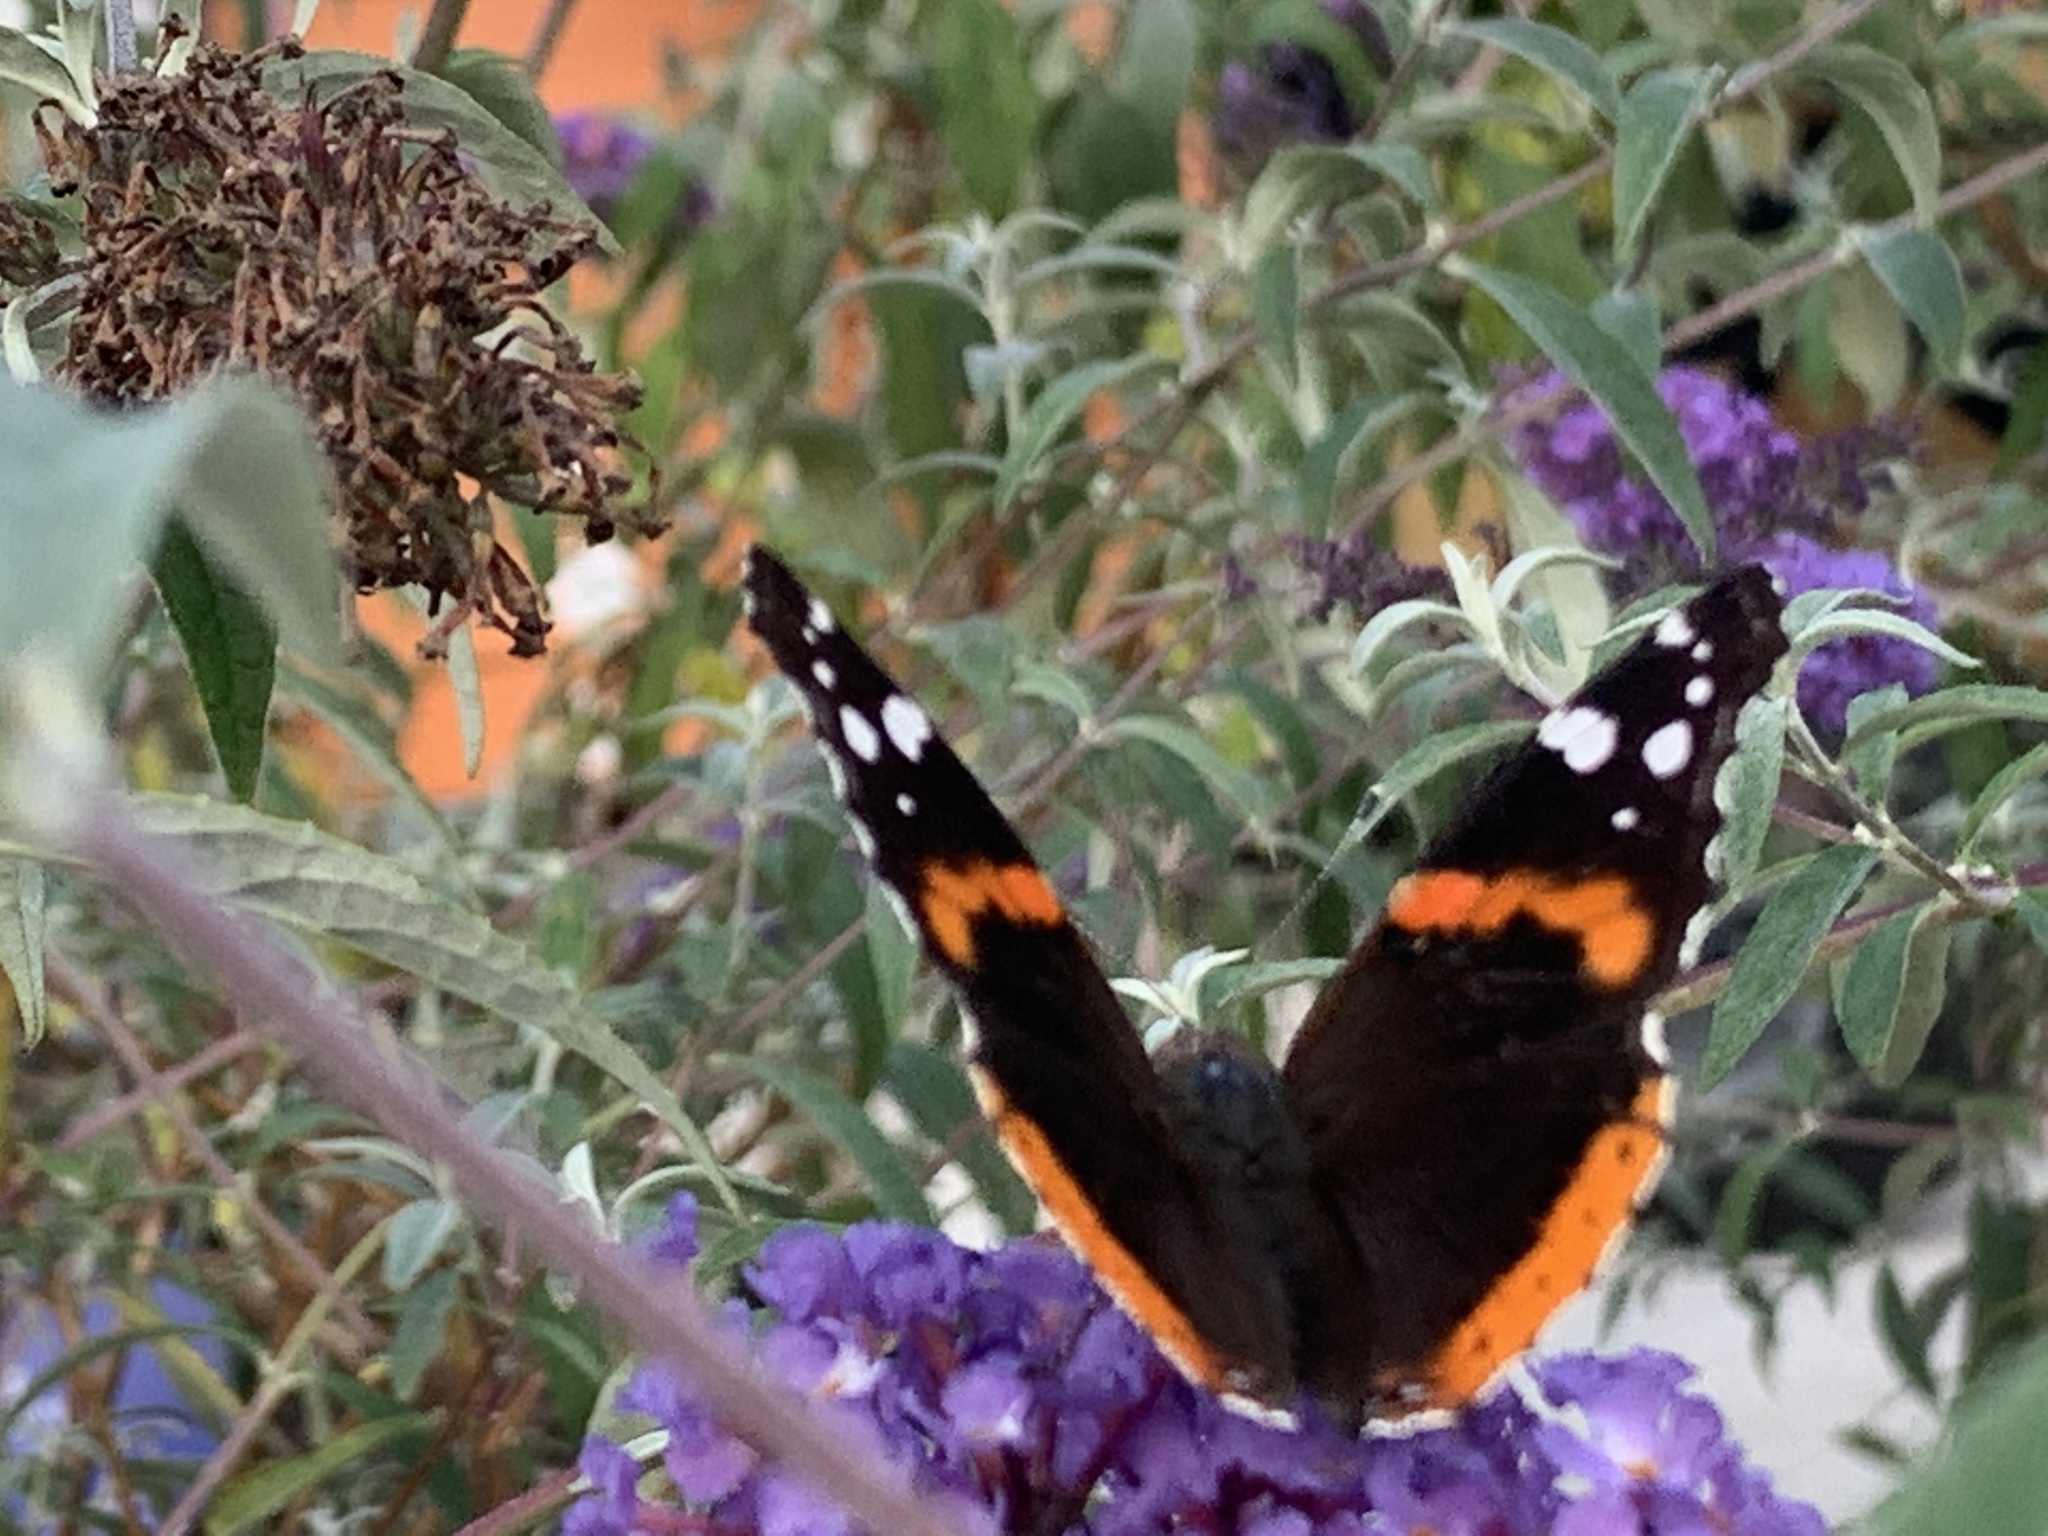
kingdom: Animalia
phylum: Arthropoda
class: Insecta
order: Lepidoptera
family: Nymphalidae
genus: Vanessa
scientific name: Vanessa atalanta
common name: Red admiral
